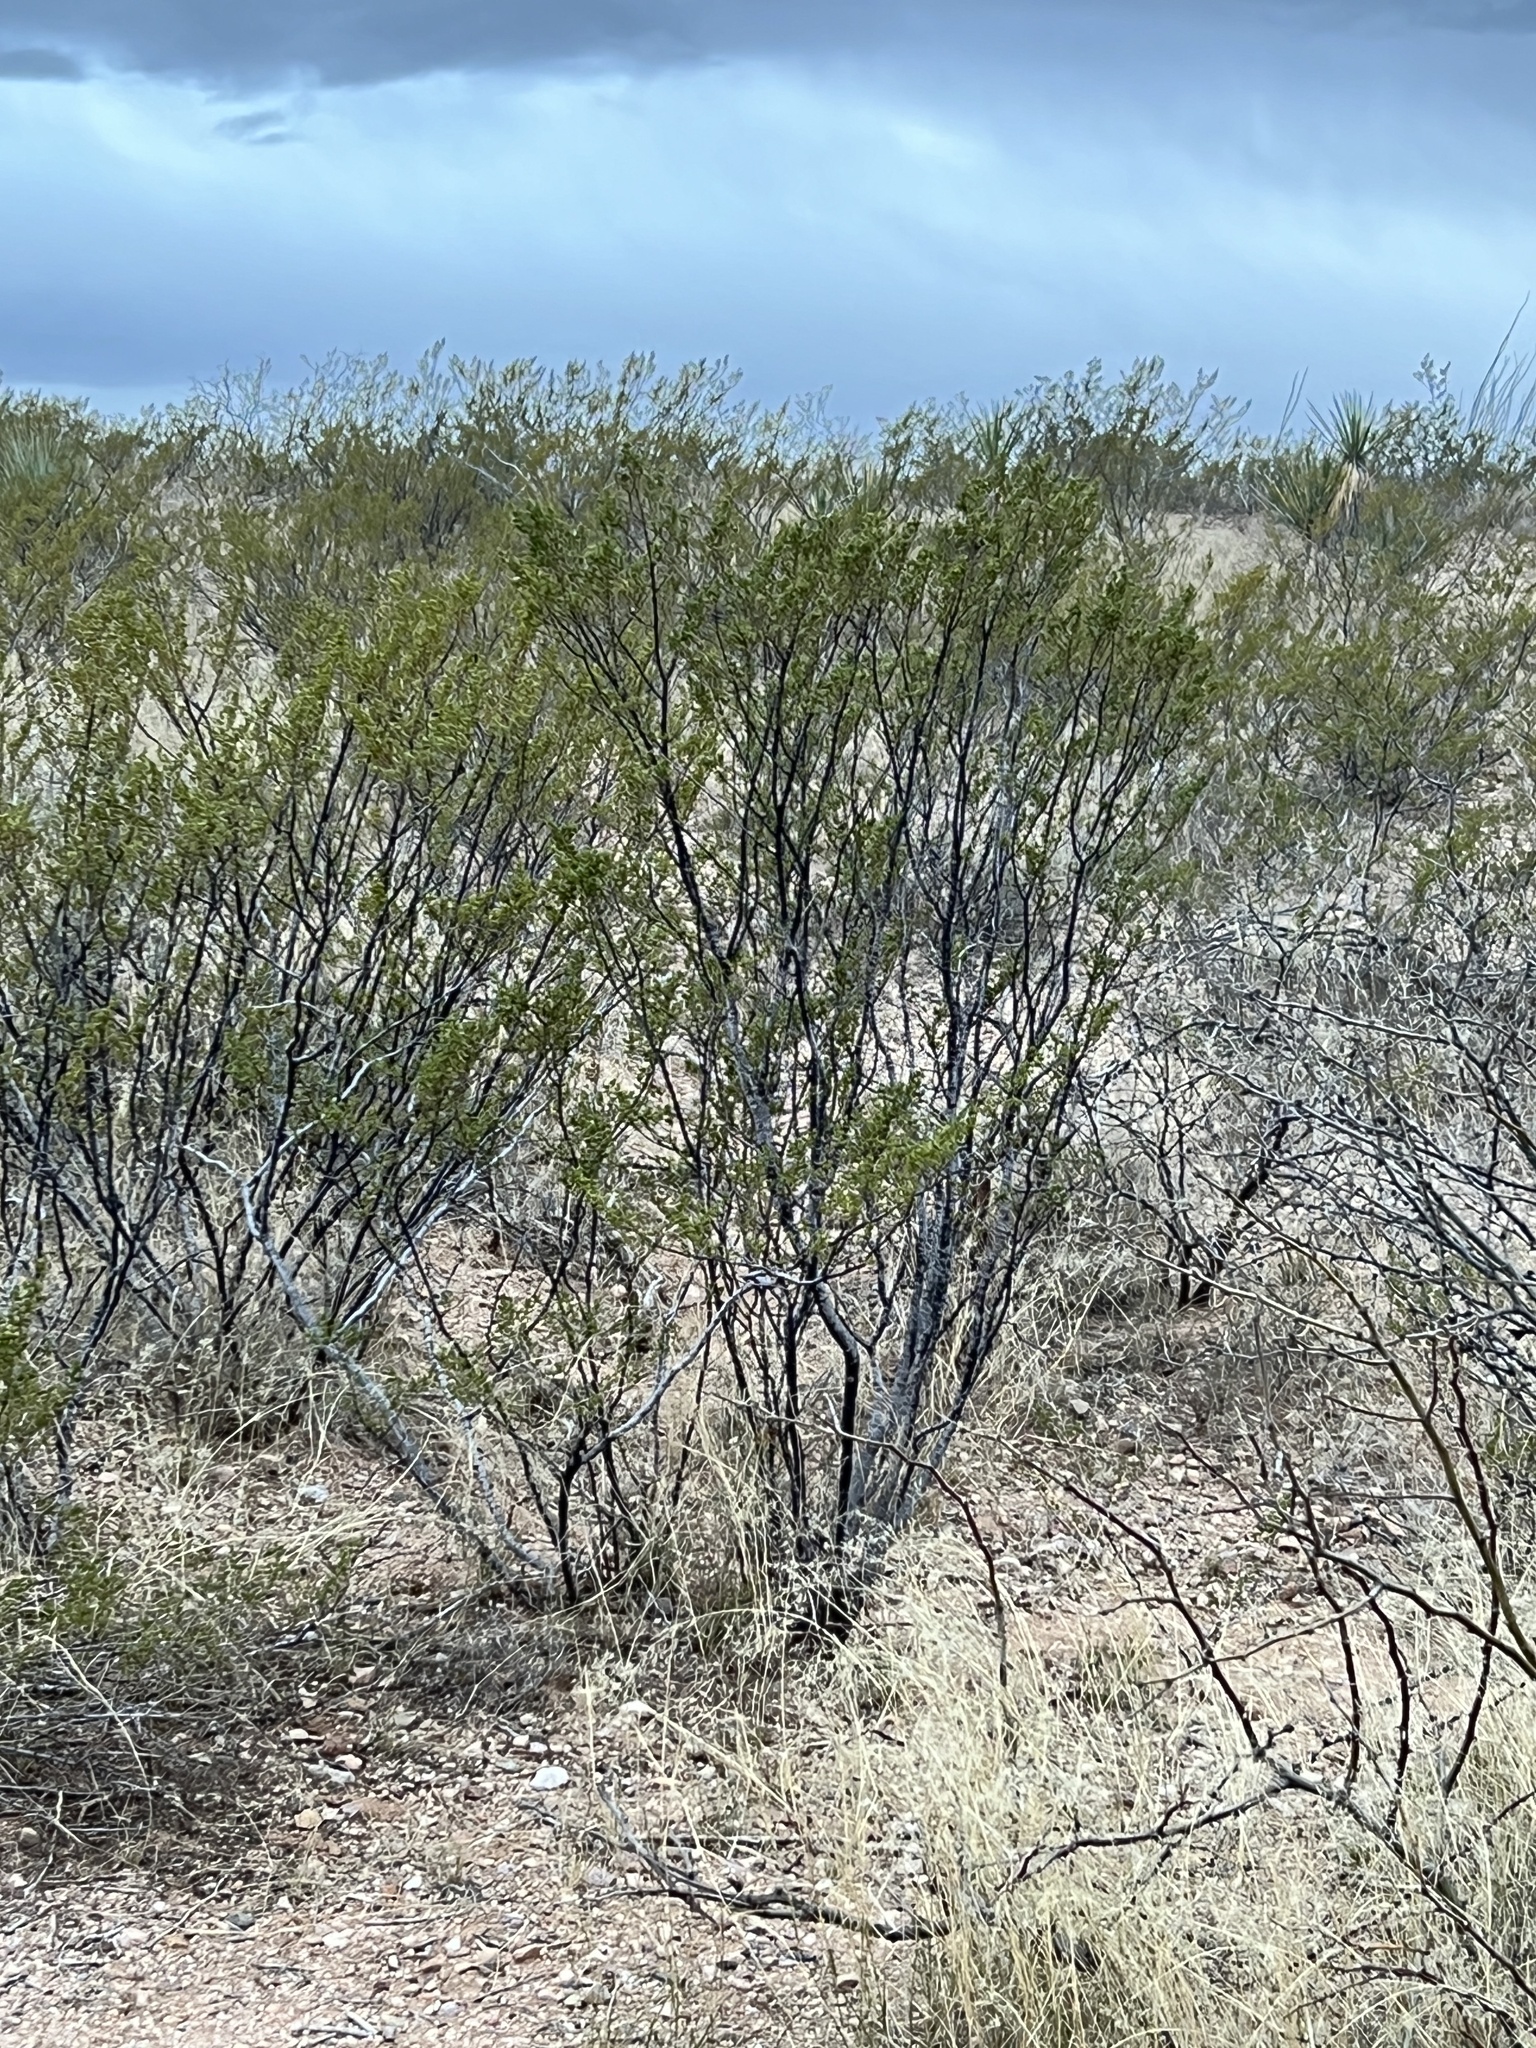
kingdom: Plantae
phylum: Tracheophyta
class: Magnoliopsida
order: Zygophyllales
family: Zygophyllaceae
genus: Larrea
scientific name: Larrea tridentata
